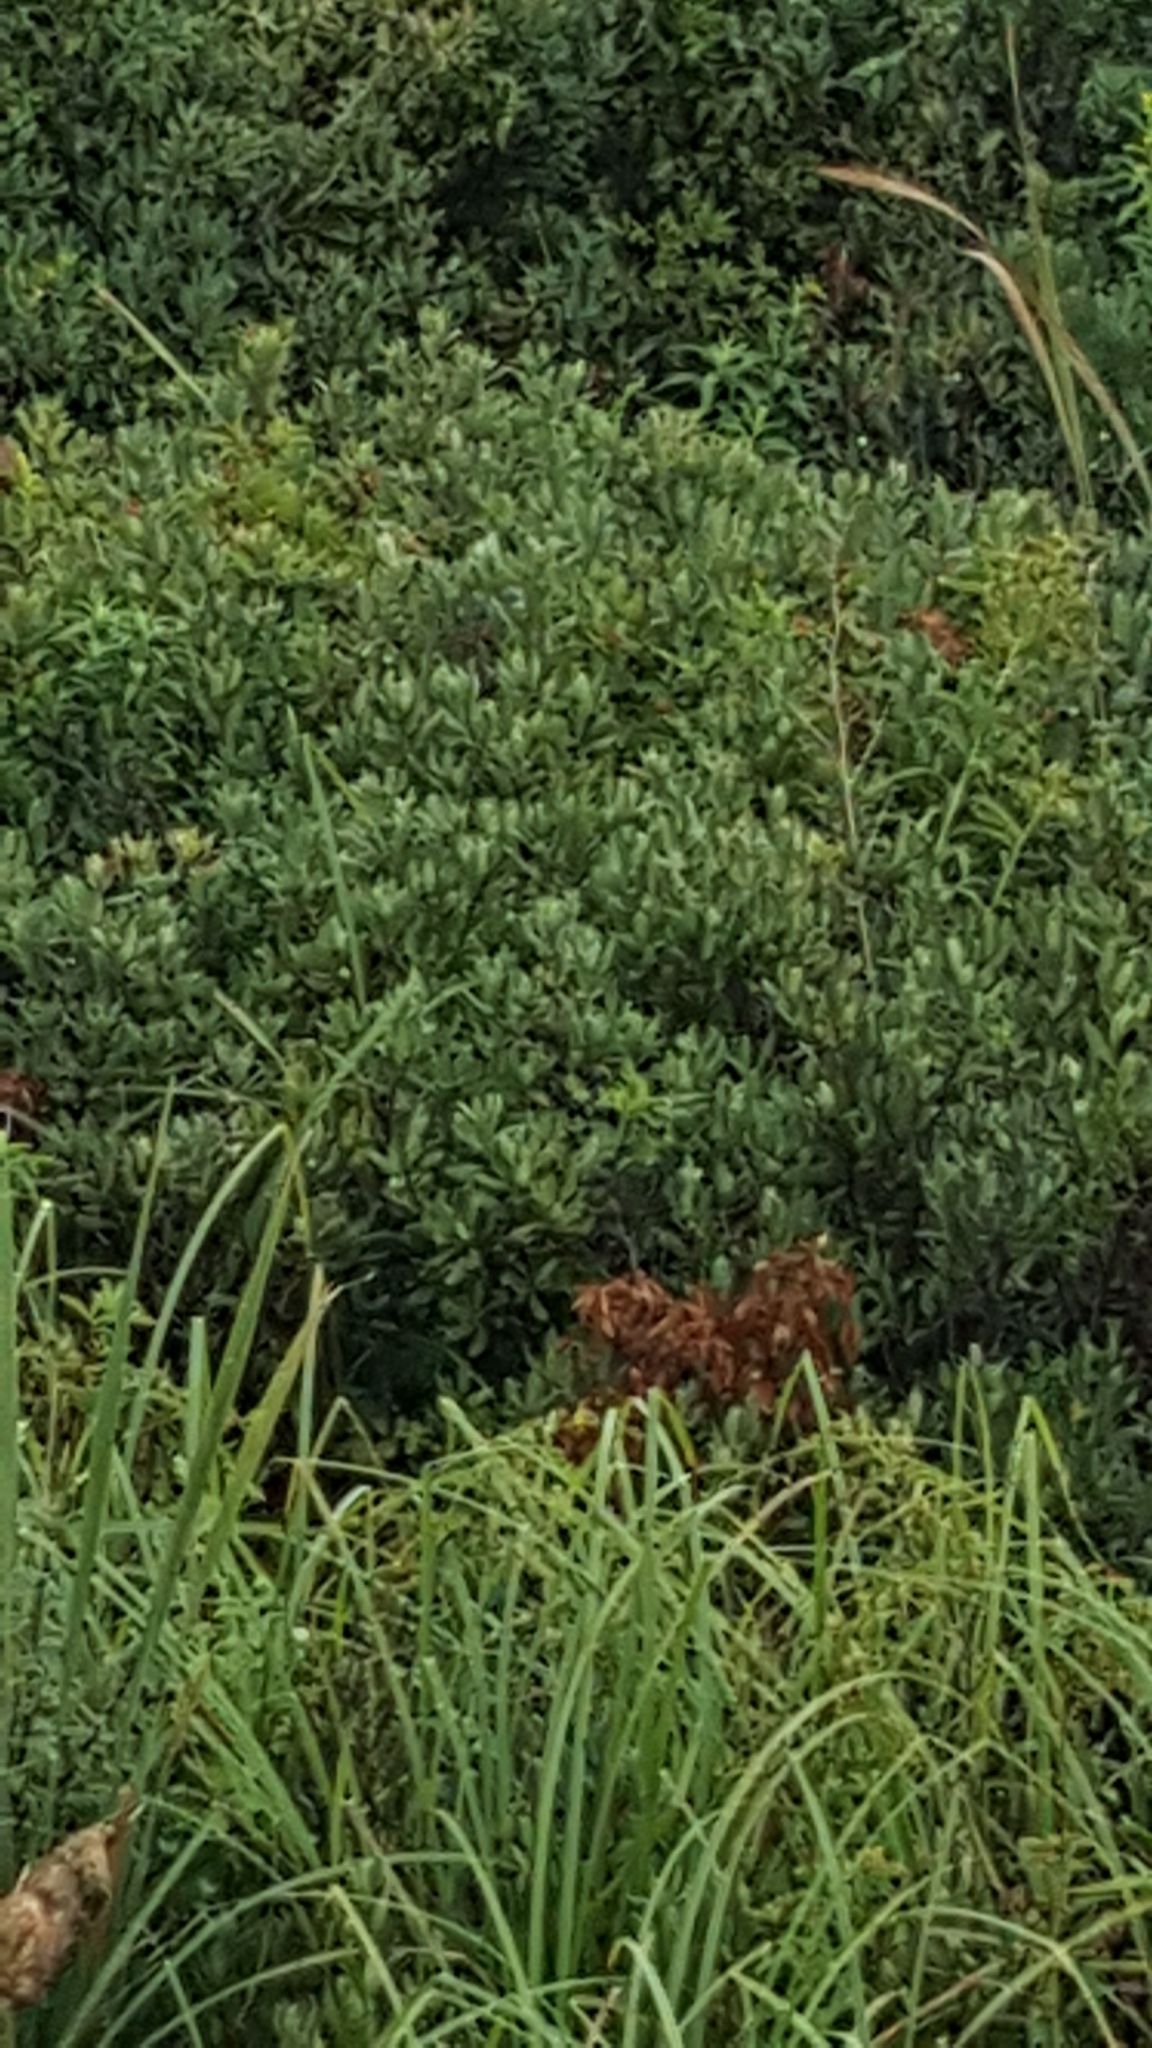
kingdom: Plantae
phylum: Tracheophyta
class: Magnoliopsida
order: Fagales
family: Myricaceae
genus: Myrica
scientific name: Myrica gale
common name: Sweet gale
